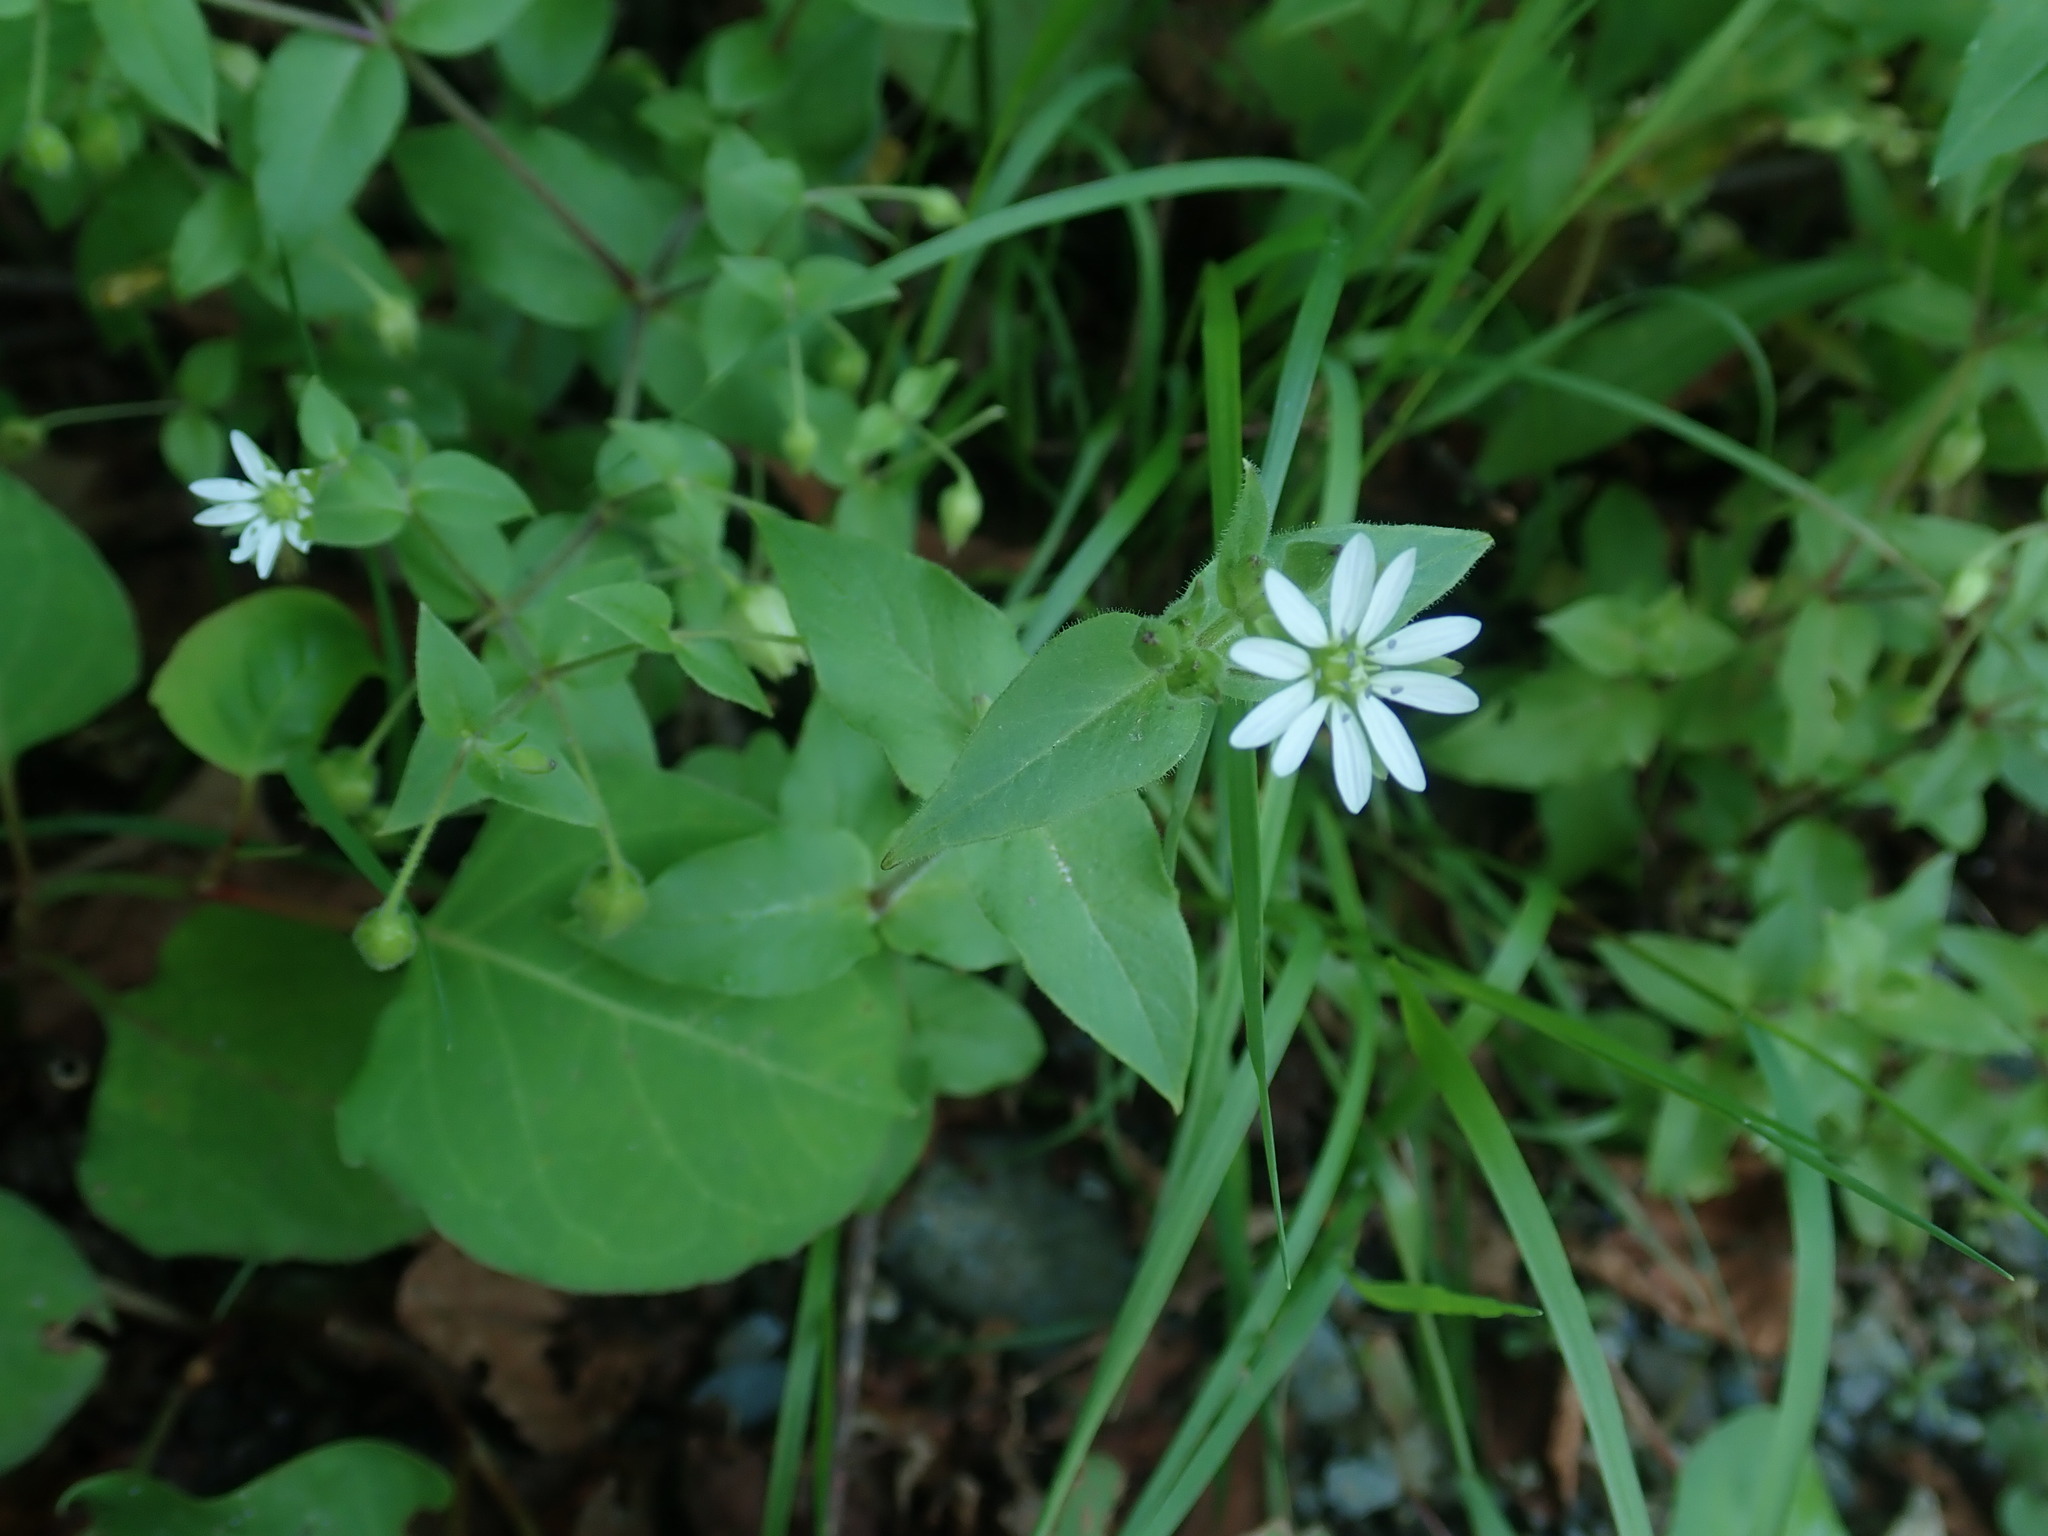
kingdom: Plantae
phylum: Tracheophyta
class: Magnoliopsida
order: Caryophyllales
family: Caryophyllaceae
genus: Stellaria
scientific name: Stellaria aquatica
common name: Water chickweed
